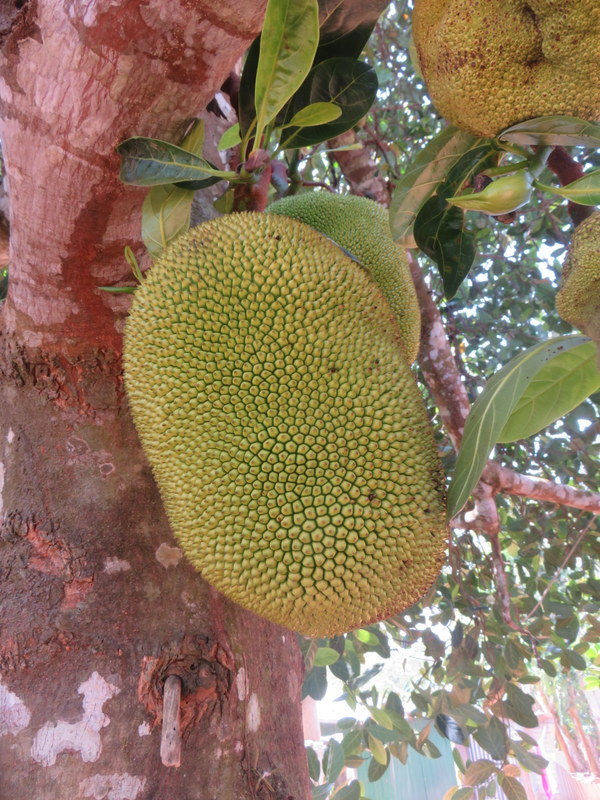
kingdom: Plantae
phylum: Tracheophyta
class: Magnoliopsida
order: Rosales
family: Moraceae
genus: Artocarpus
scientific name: Artocarpus heterophyllus
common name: Jackfruit
